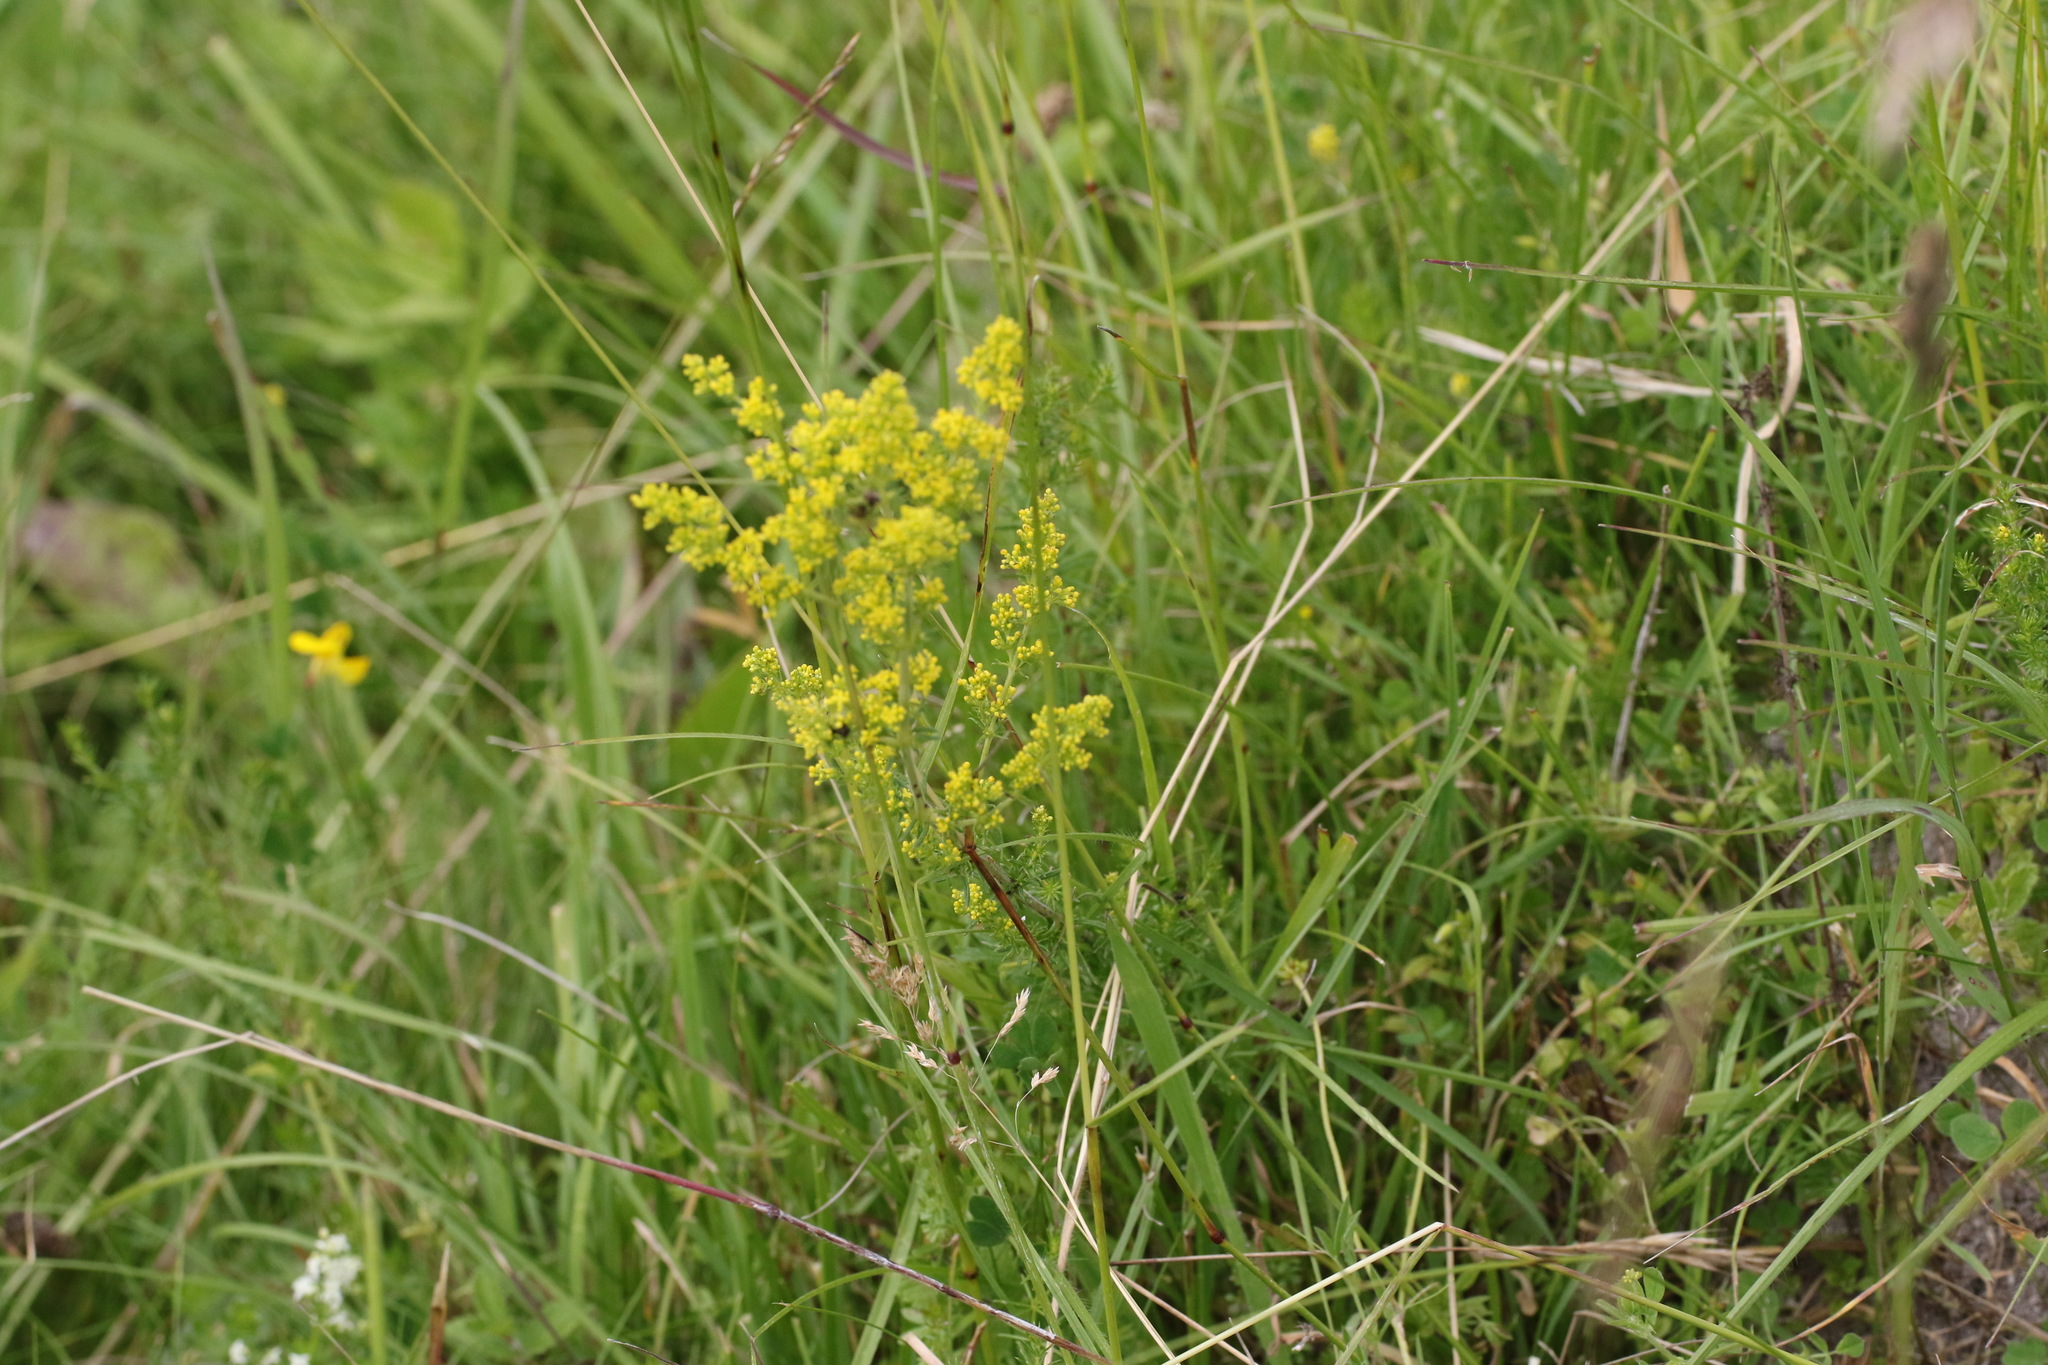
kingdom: Plantae
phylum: Tracheophyta
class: Magnoliopsida
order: Gentianales
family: Rubiaceae
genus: Galium
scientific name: Galium verum
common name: Lady's bedstraw
